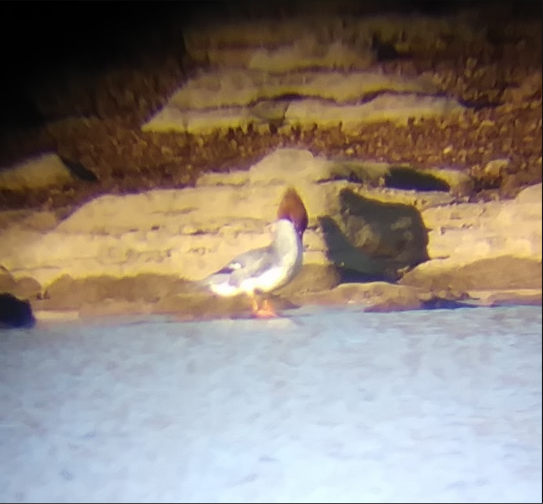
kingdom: Animalia
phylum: Chordata
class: Aves
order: Anseriformes
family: Anatidae
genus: Mergus
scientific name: Mergus merganser
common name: Common merganser
